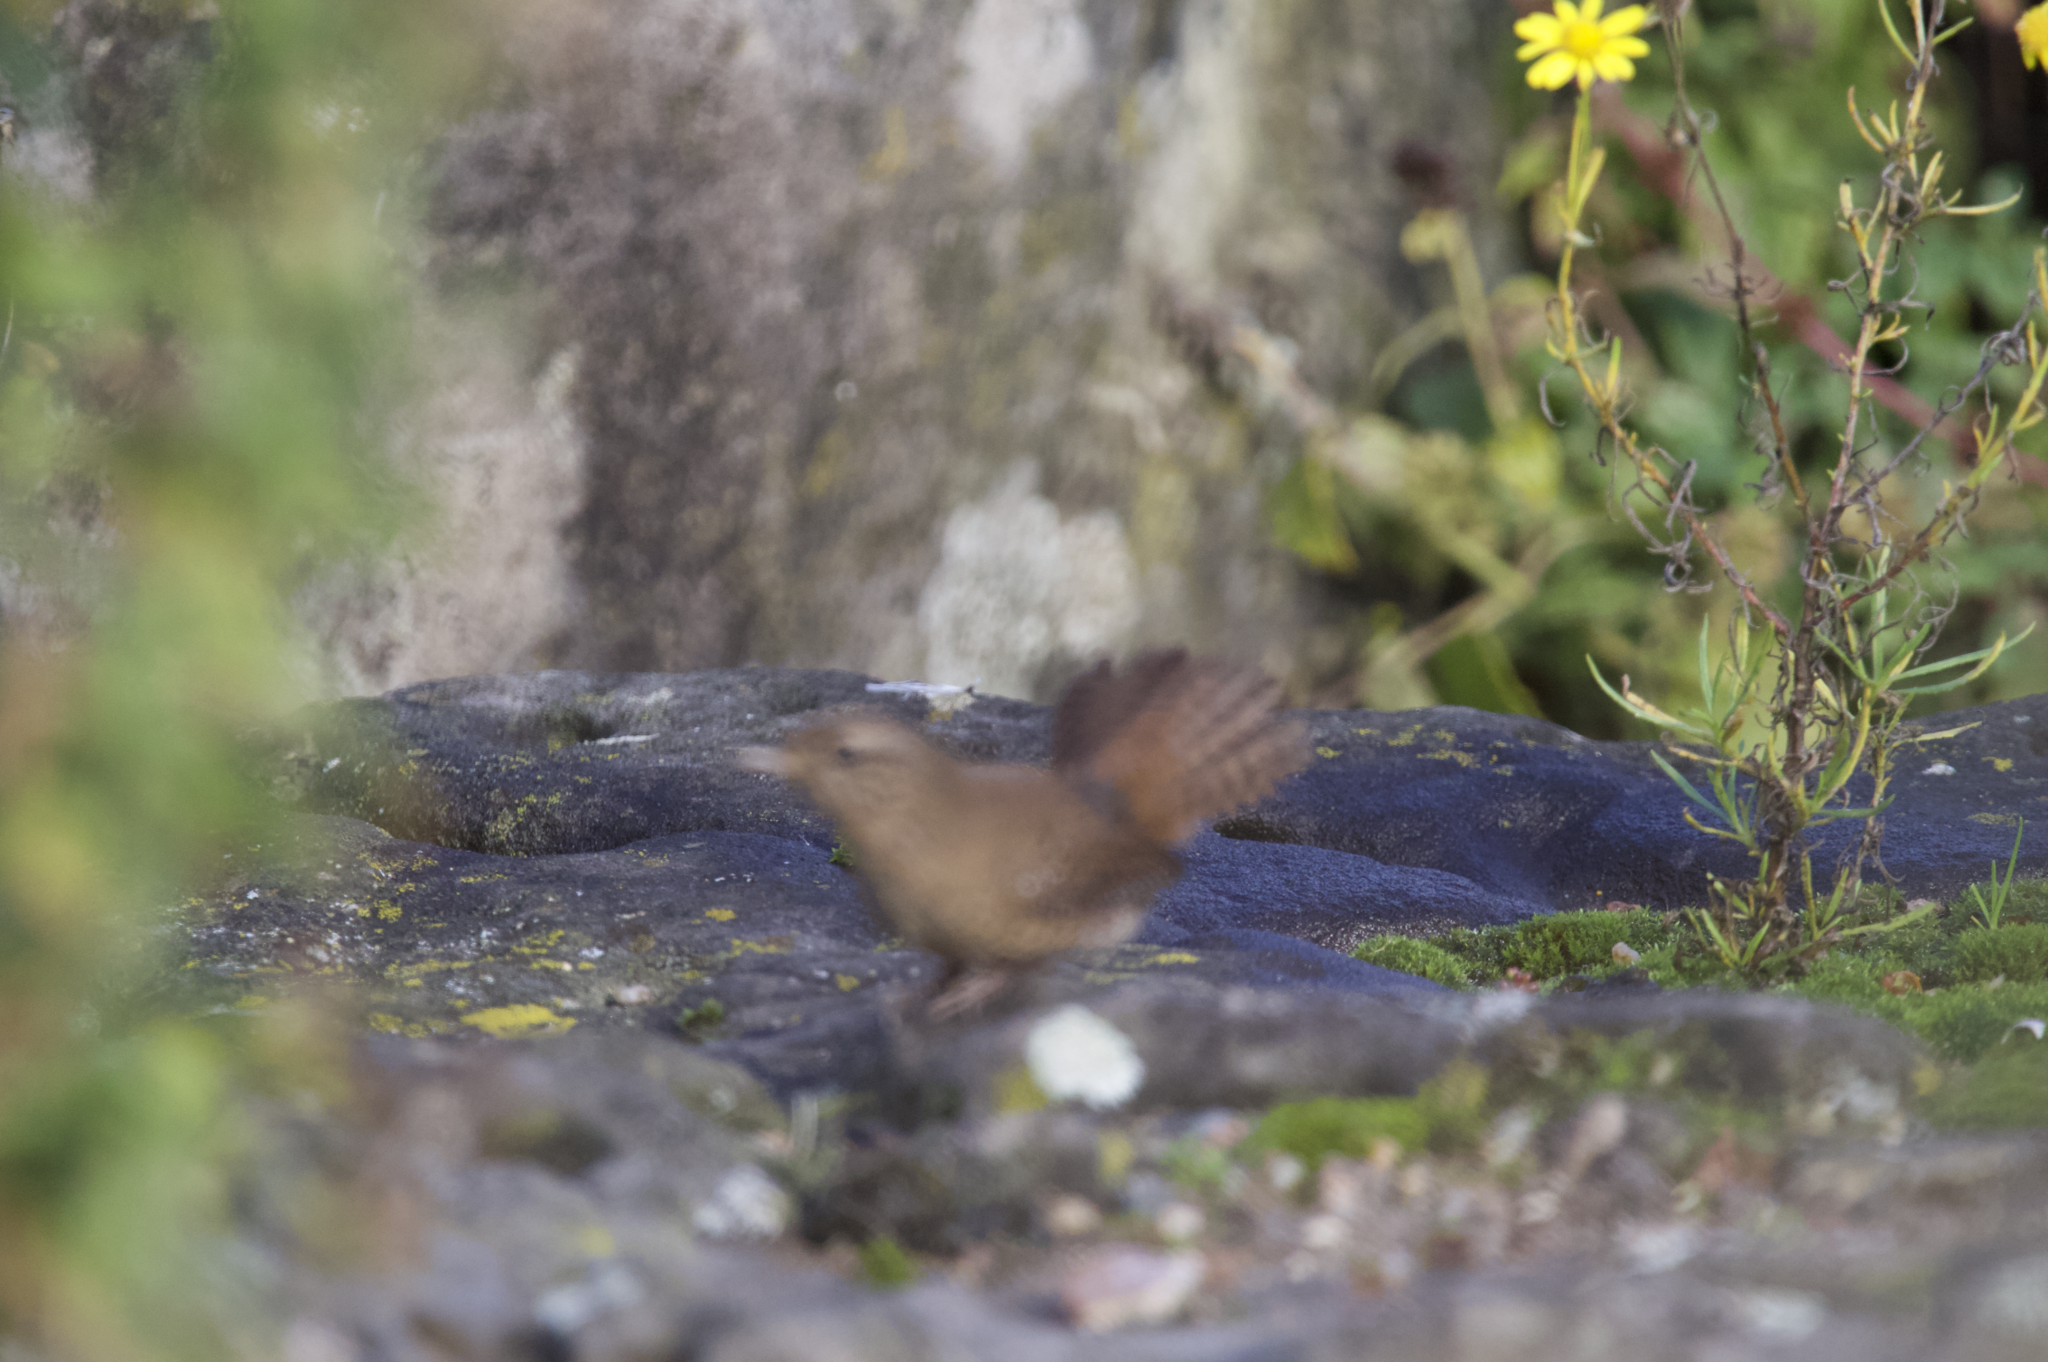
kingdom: Animalia
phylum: Chordata
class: Aves
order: Passeriformes
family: Troglodytidae
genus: Troglodytes
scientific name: Troglodytes troglodytes
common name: Eurasian wren
